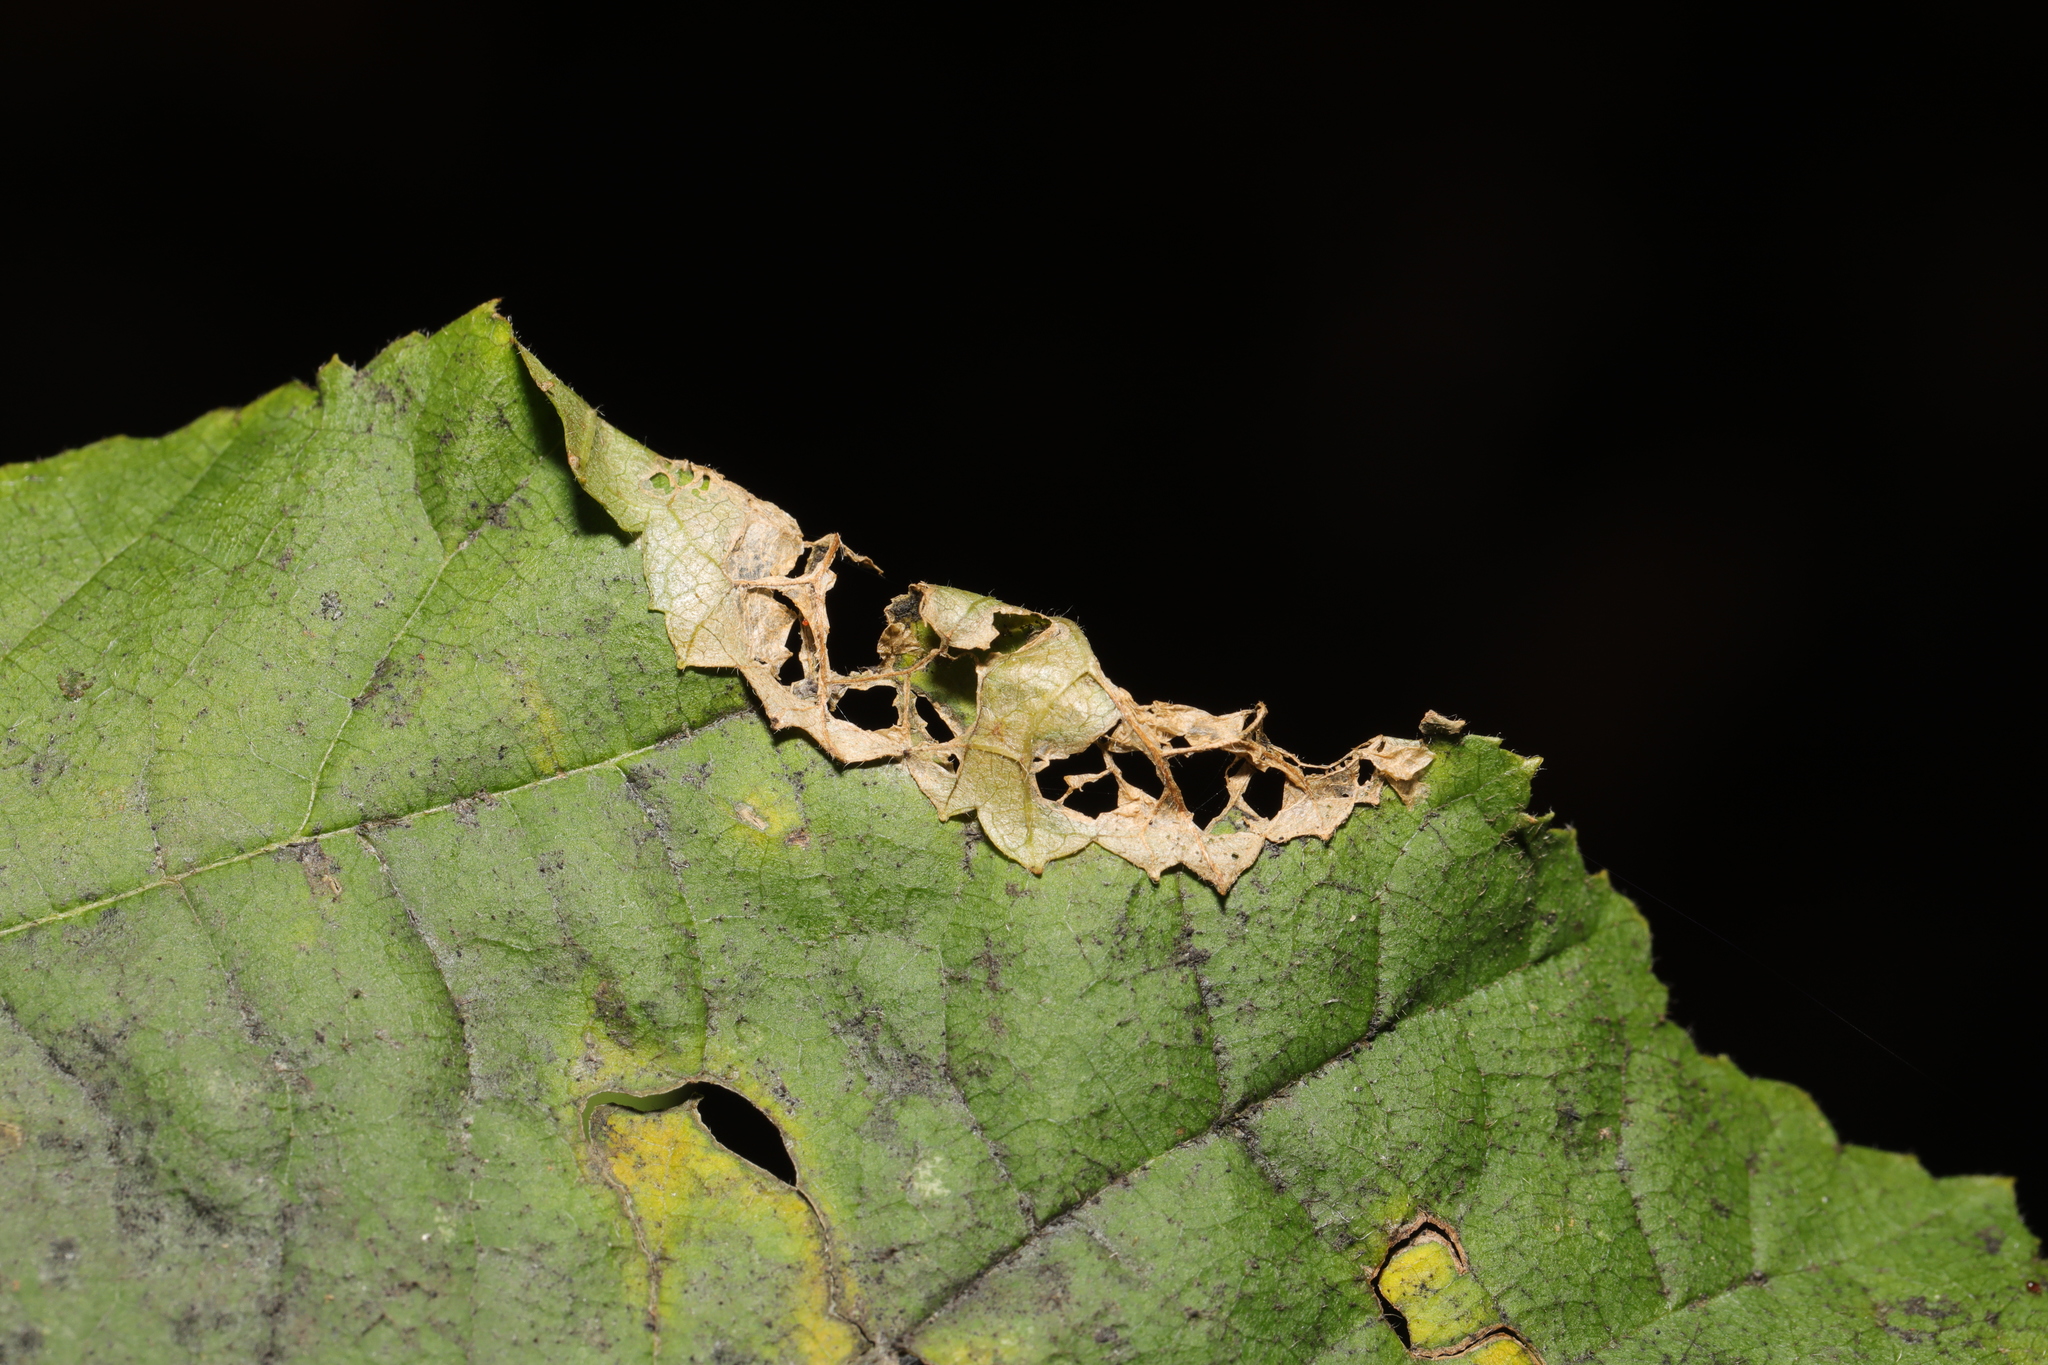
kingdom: Animalia
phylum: Arthropoda
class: Insecta
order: Lepidoptera
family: Gracillariidae
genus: Parornix
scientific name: Parornix devoniella
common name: Hazel slender
